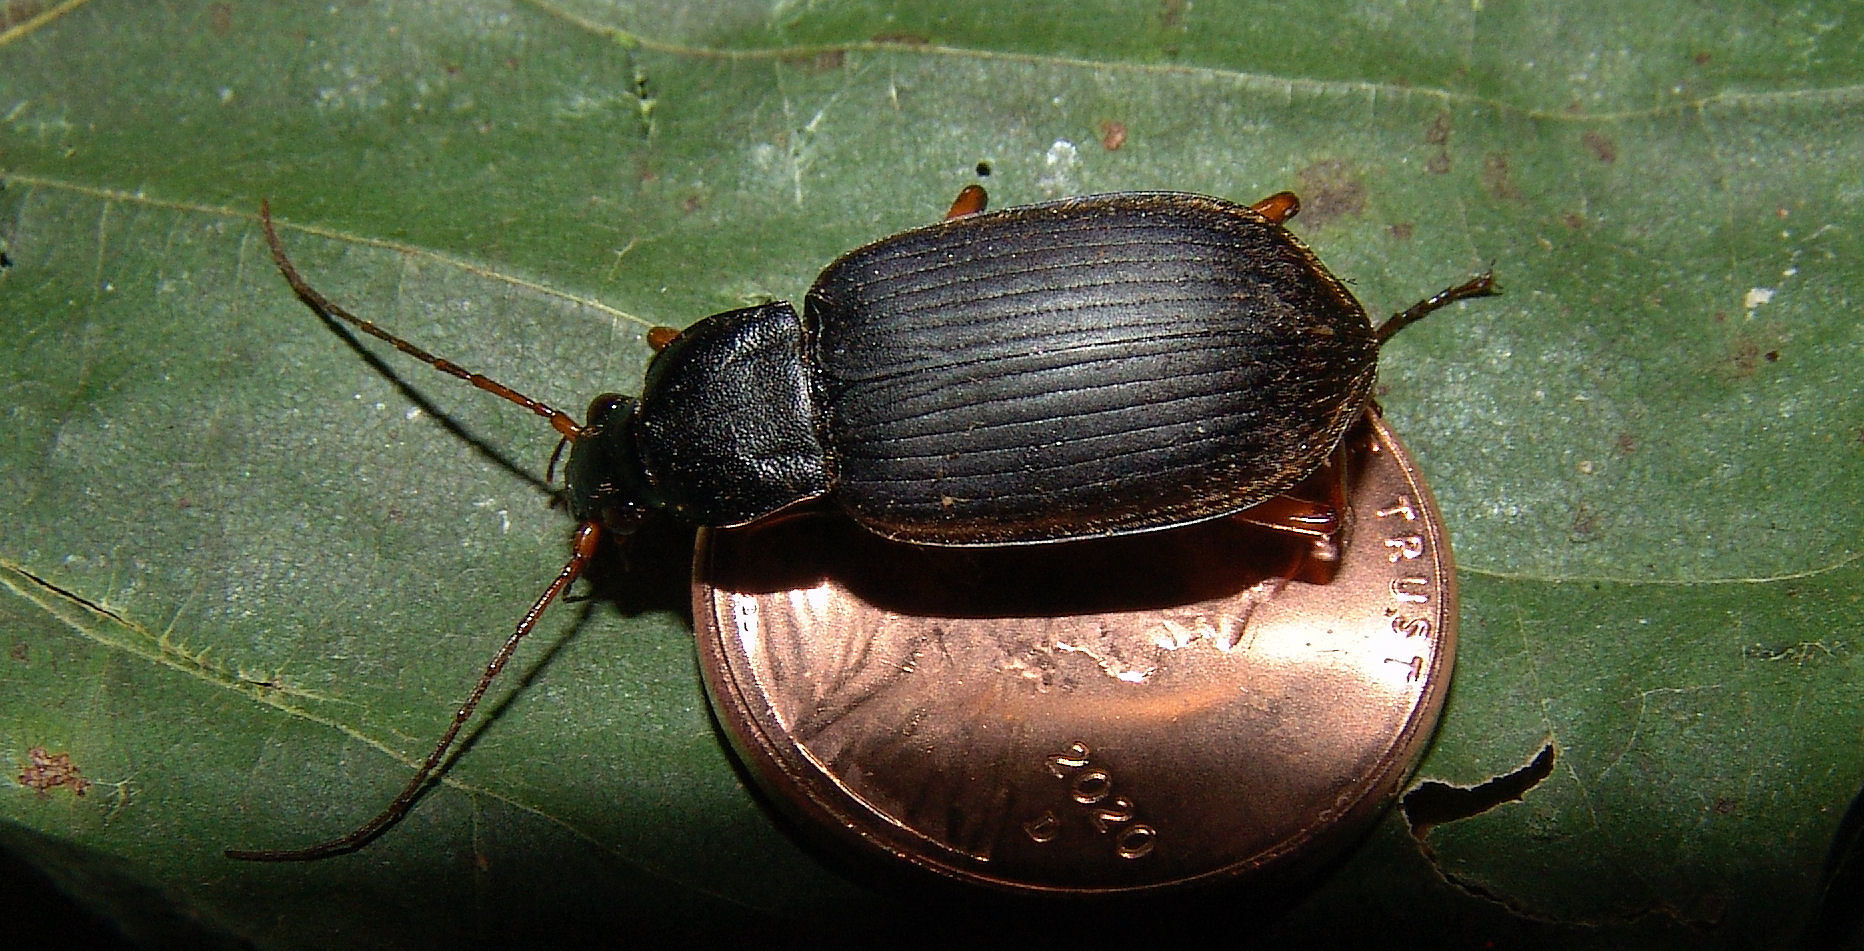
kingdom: Animalia
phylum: Arthropoda
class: Insecta
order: Coleoptera
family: Carabidae
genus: Chlaenius
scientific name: Chlaenius erythropus
